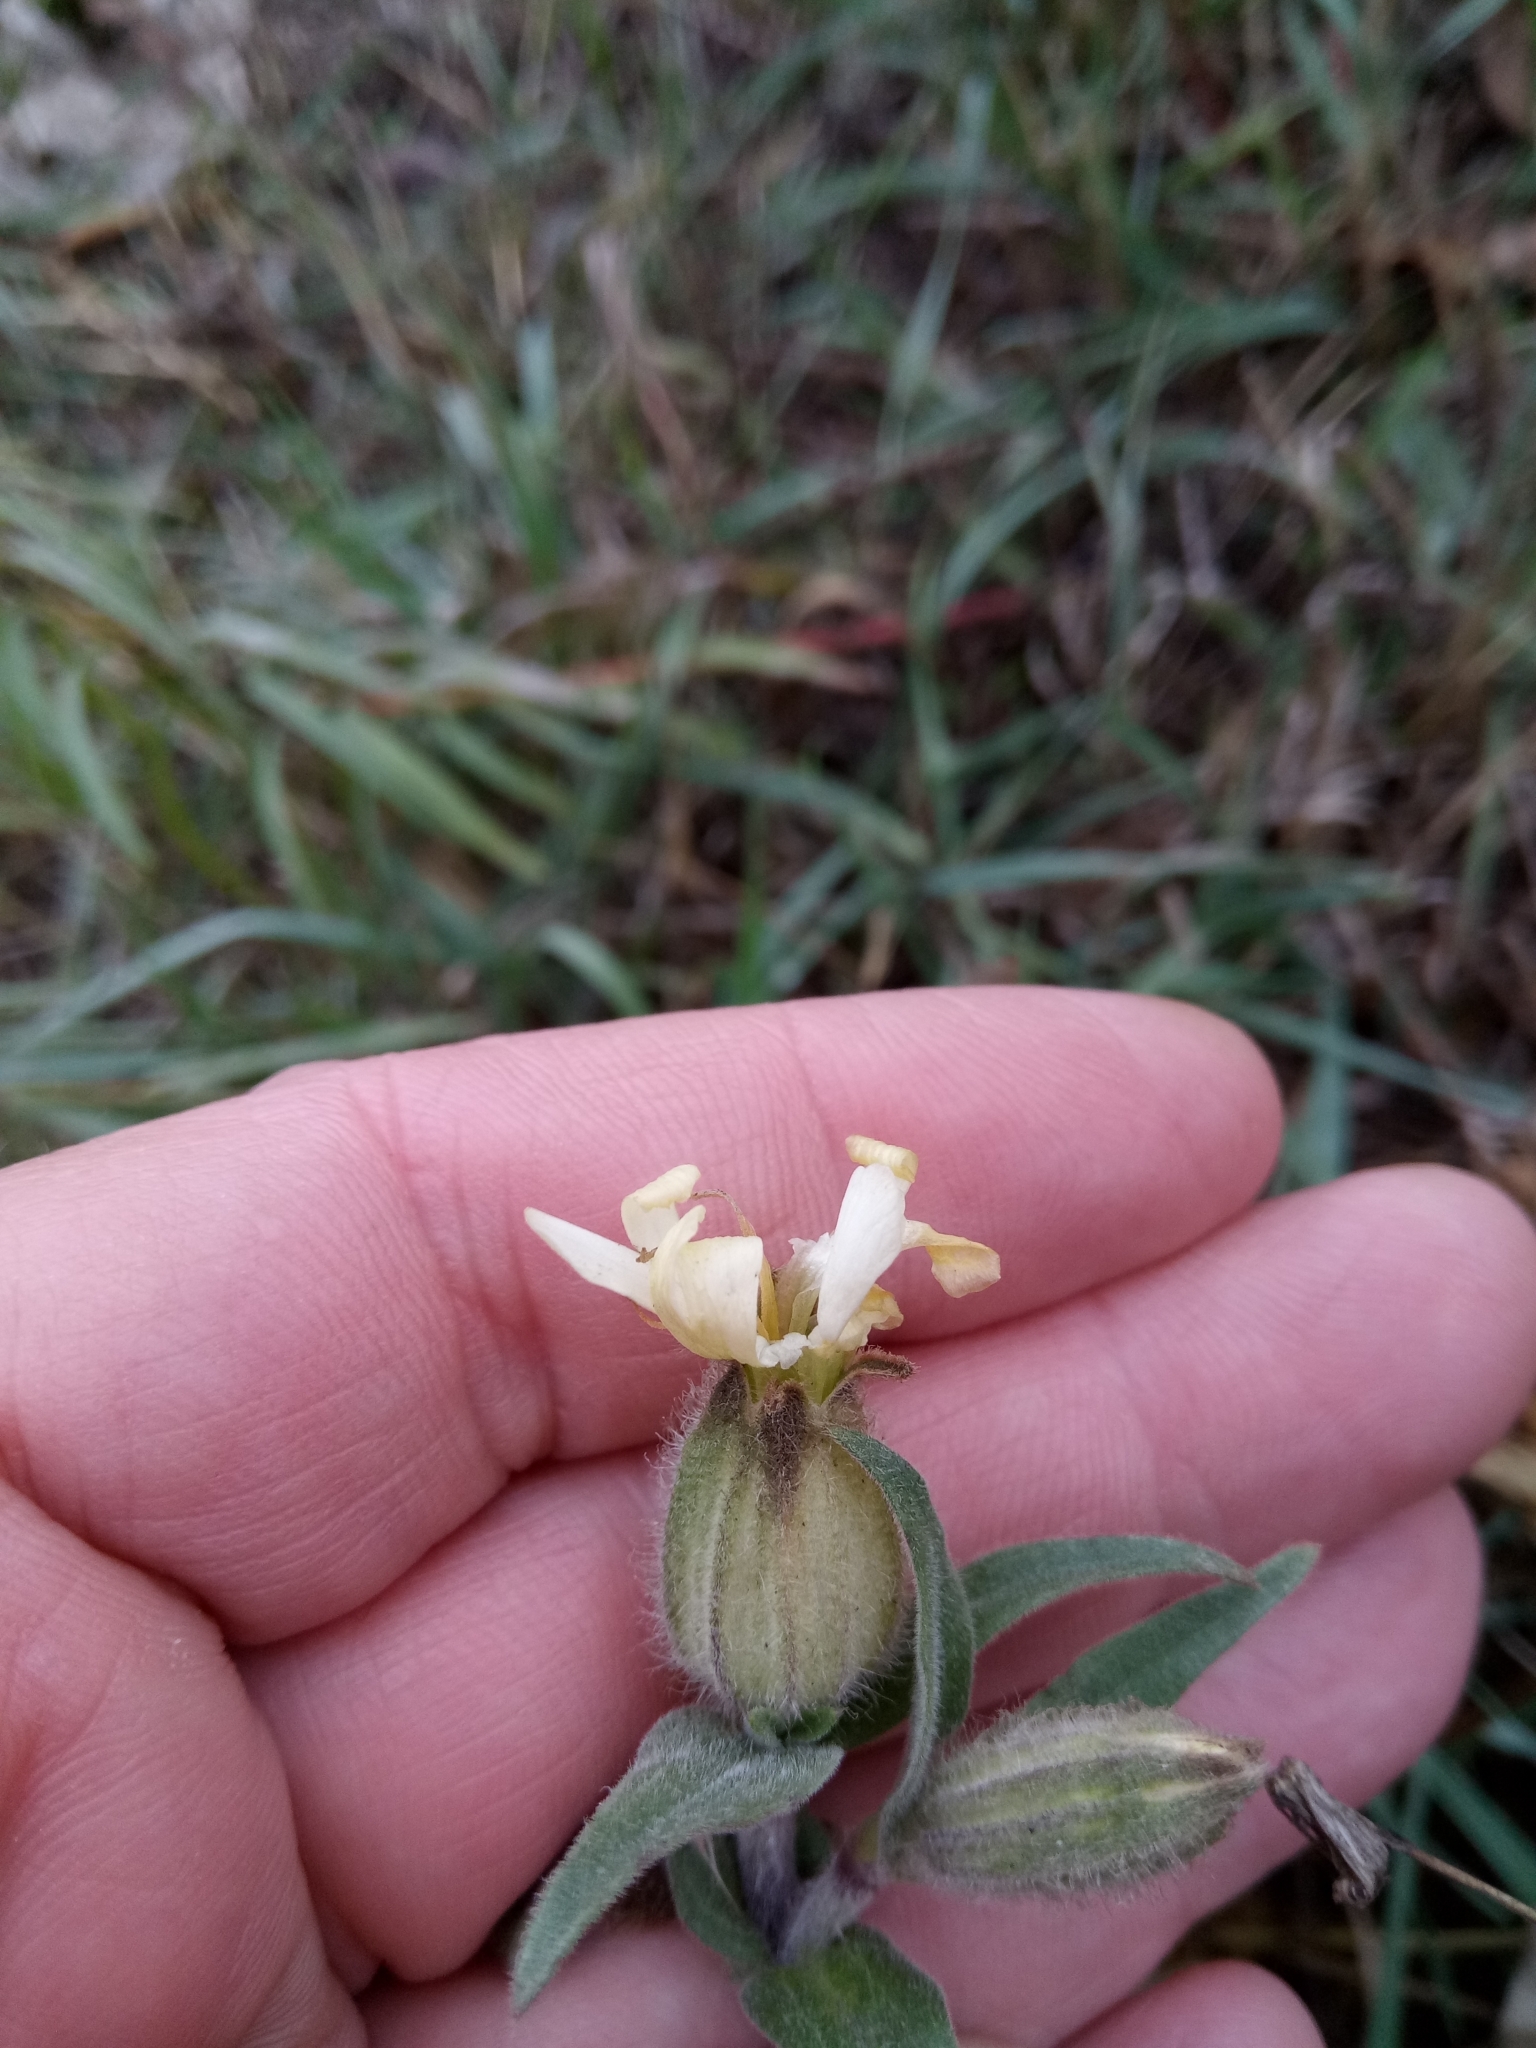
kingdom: Plantae
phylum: Tracheophyta
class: Magnoliopsida
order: Caryophyllales
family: Caryophyllaceae
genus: Silene
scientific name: Silene latifolia
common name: White campion
